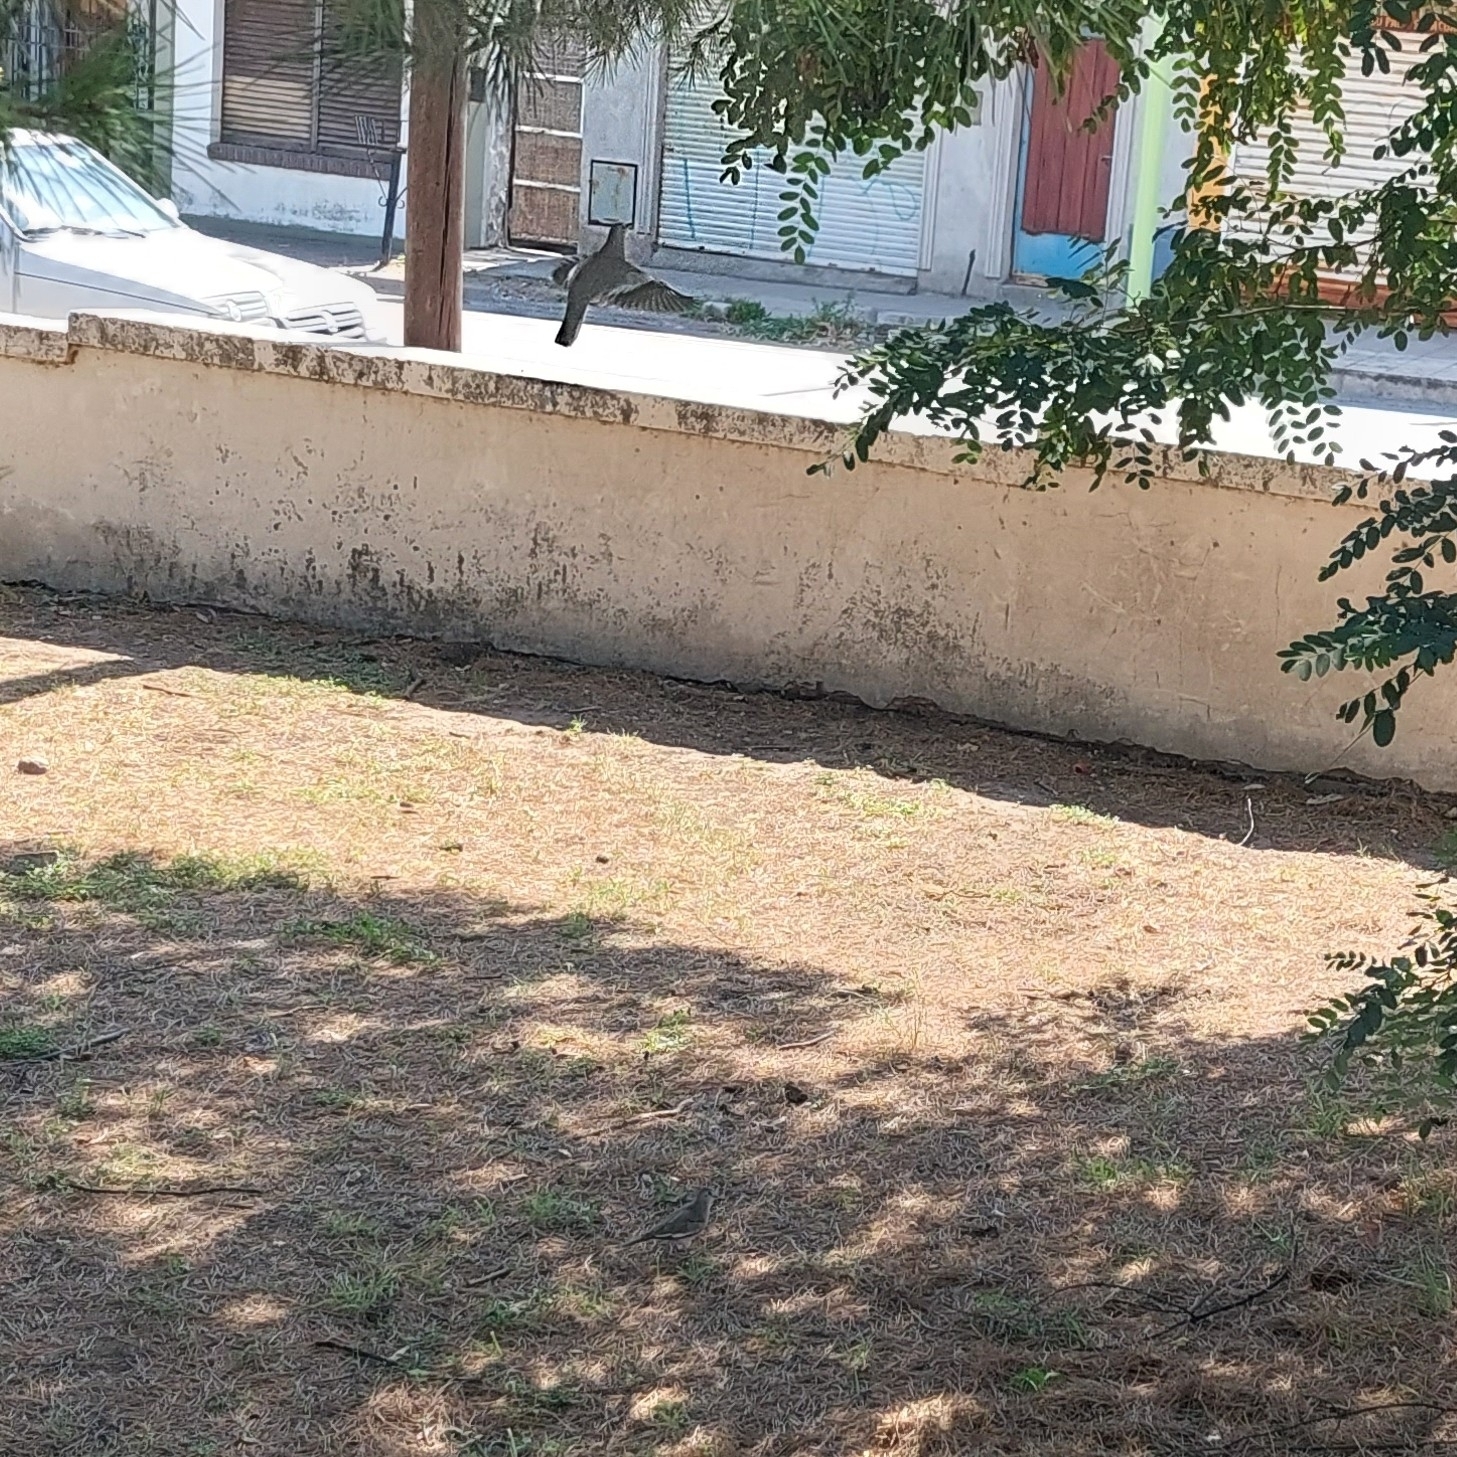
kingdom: Animalia
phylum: Chordata
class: Aves
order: Columbiformes
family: Columbidae
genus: Columbina
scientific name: Columbina picui
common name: Picui ground dove
